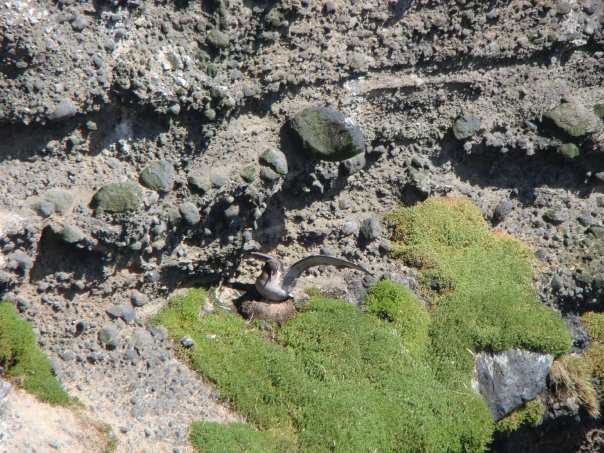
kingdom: Animalia
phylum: Chordata
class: Aves
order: Procellariiformes
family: Diomedeidae
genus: Phoebetria
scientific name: Phoebetria palpebrata
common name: Light-mantled albatross
